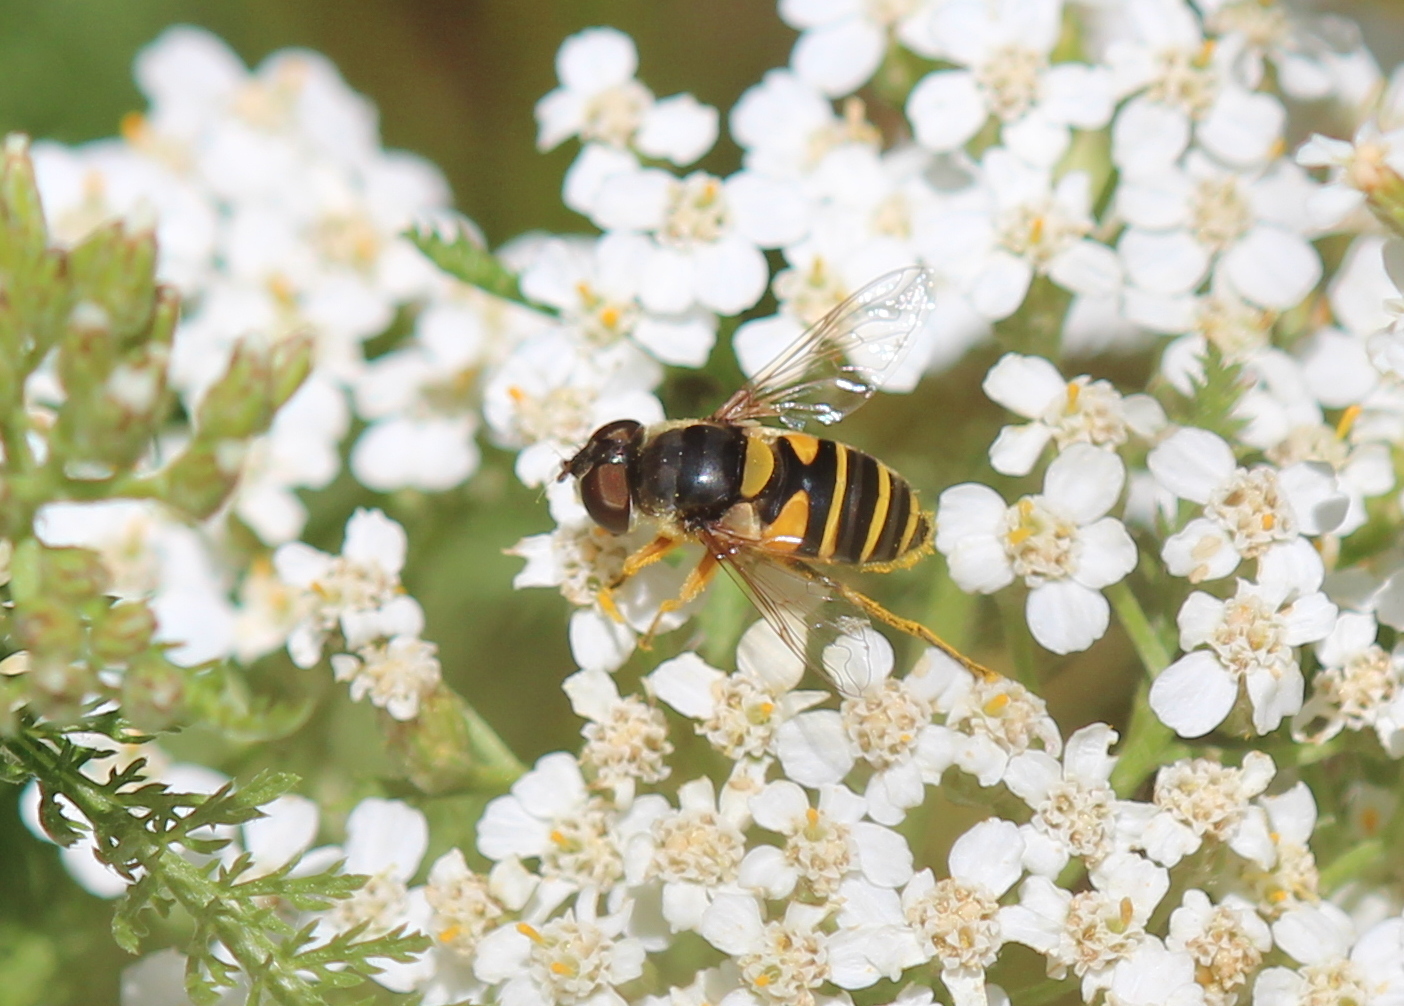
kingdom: Animalia
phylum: Arthropoda
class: Insecta
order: Diptera
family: Syrphidae
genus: Eristalis
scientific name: Eristalis transversa
